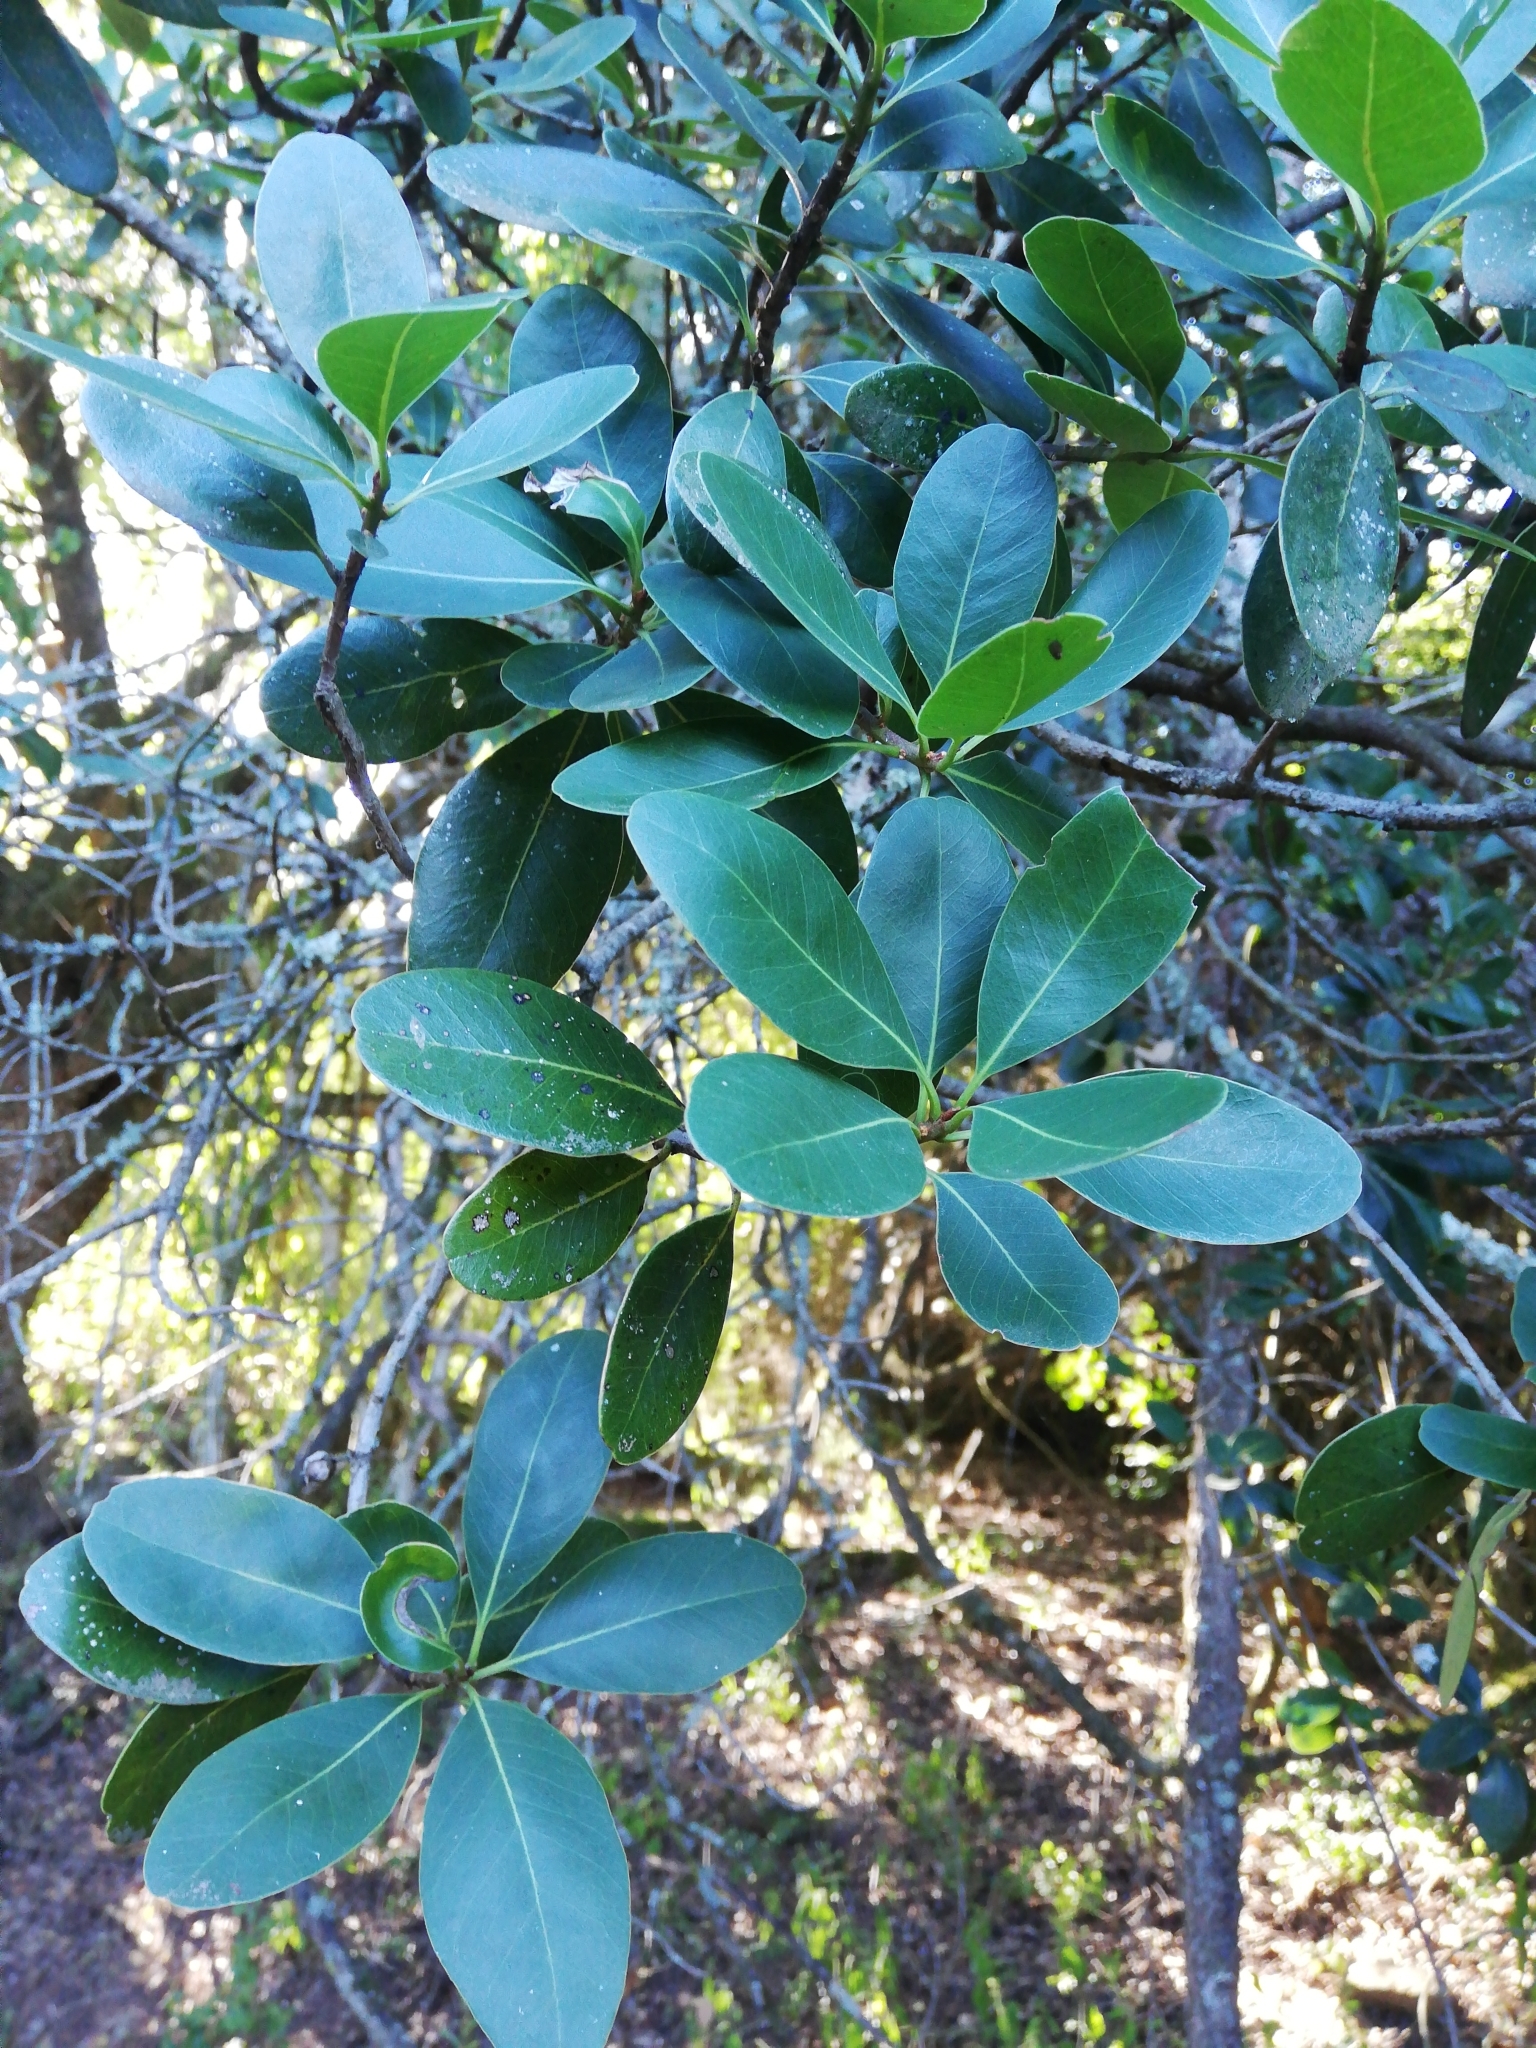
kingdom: Plantae
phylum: Tracheophyta
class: Magnoliopsida
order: Ericales
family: Sapotaceae
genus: Sideroxylon
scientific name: Sideroxylon inerme
